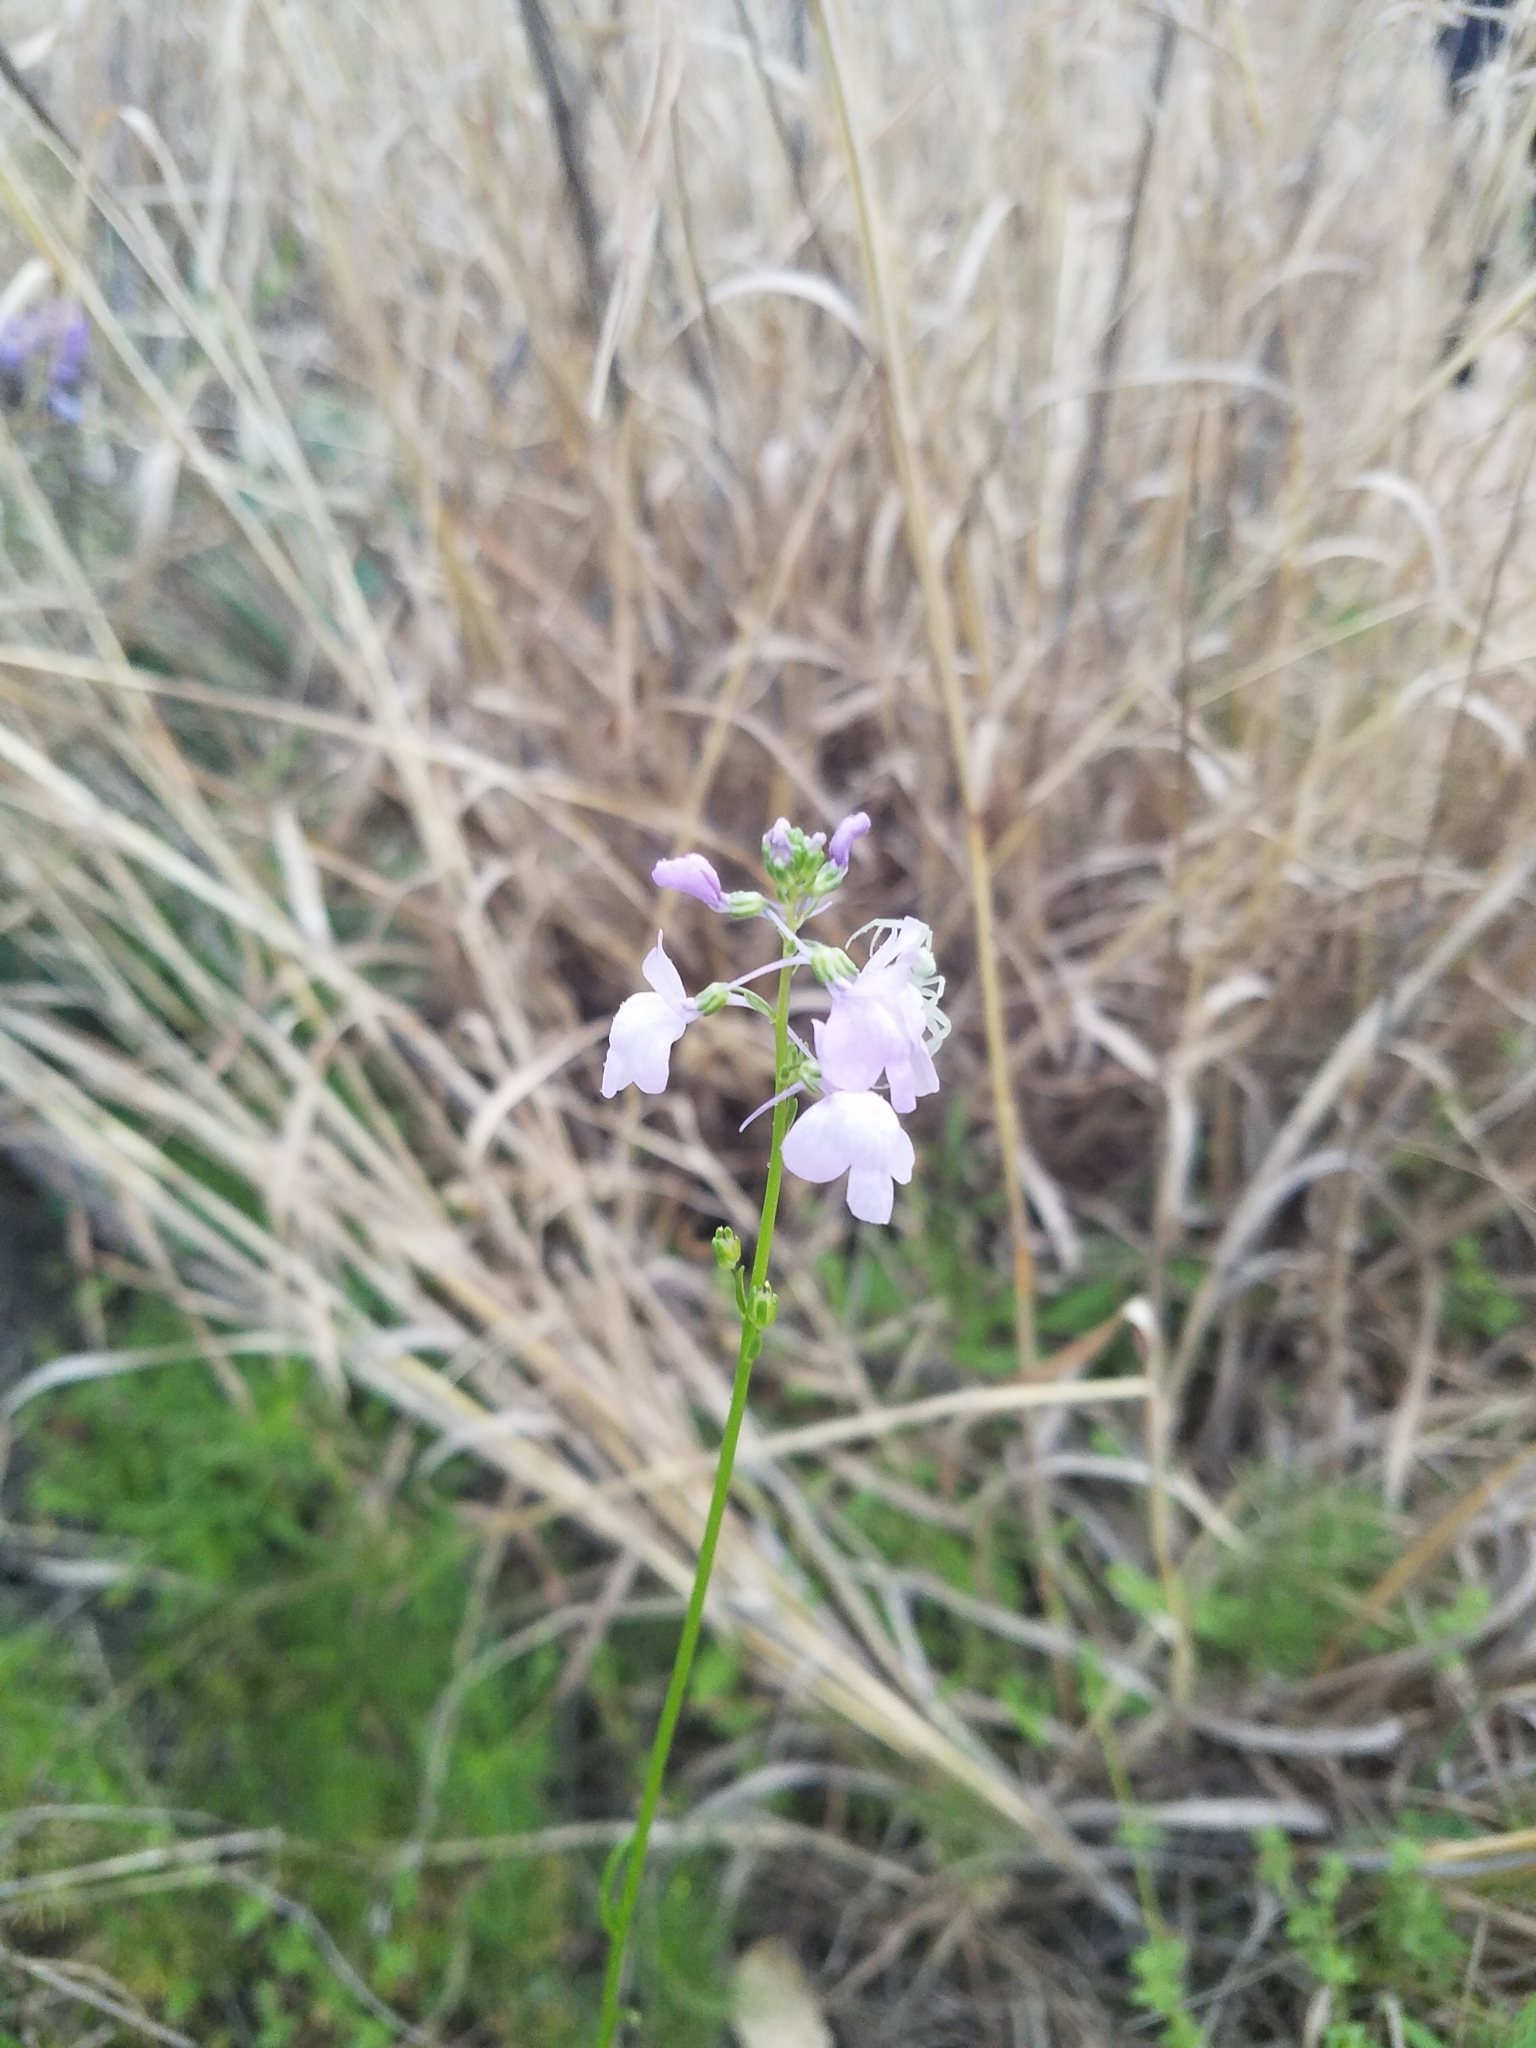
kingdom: Plantae
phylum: Tracheophyta
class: Magnoliopsida
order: Lamiales
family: Plantaginaceae
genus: Nuttallanthus
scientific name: Nuttallanthus texanus
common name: Texas toadflax
